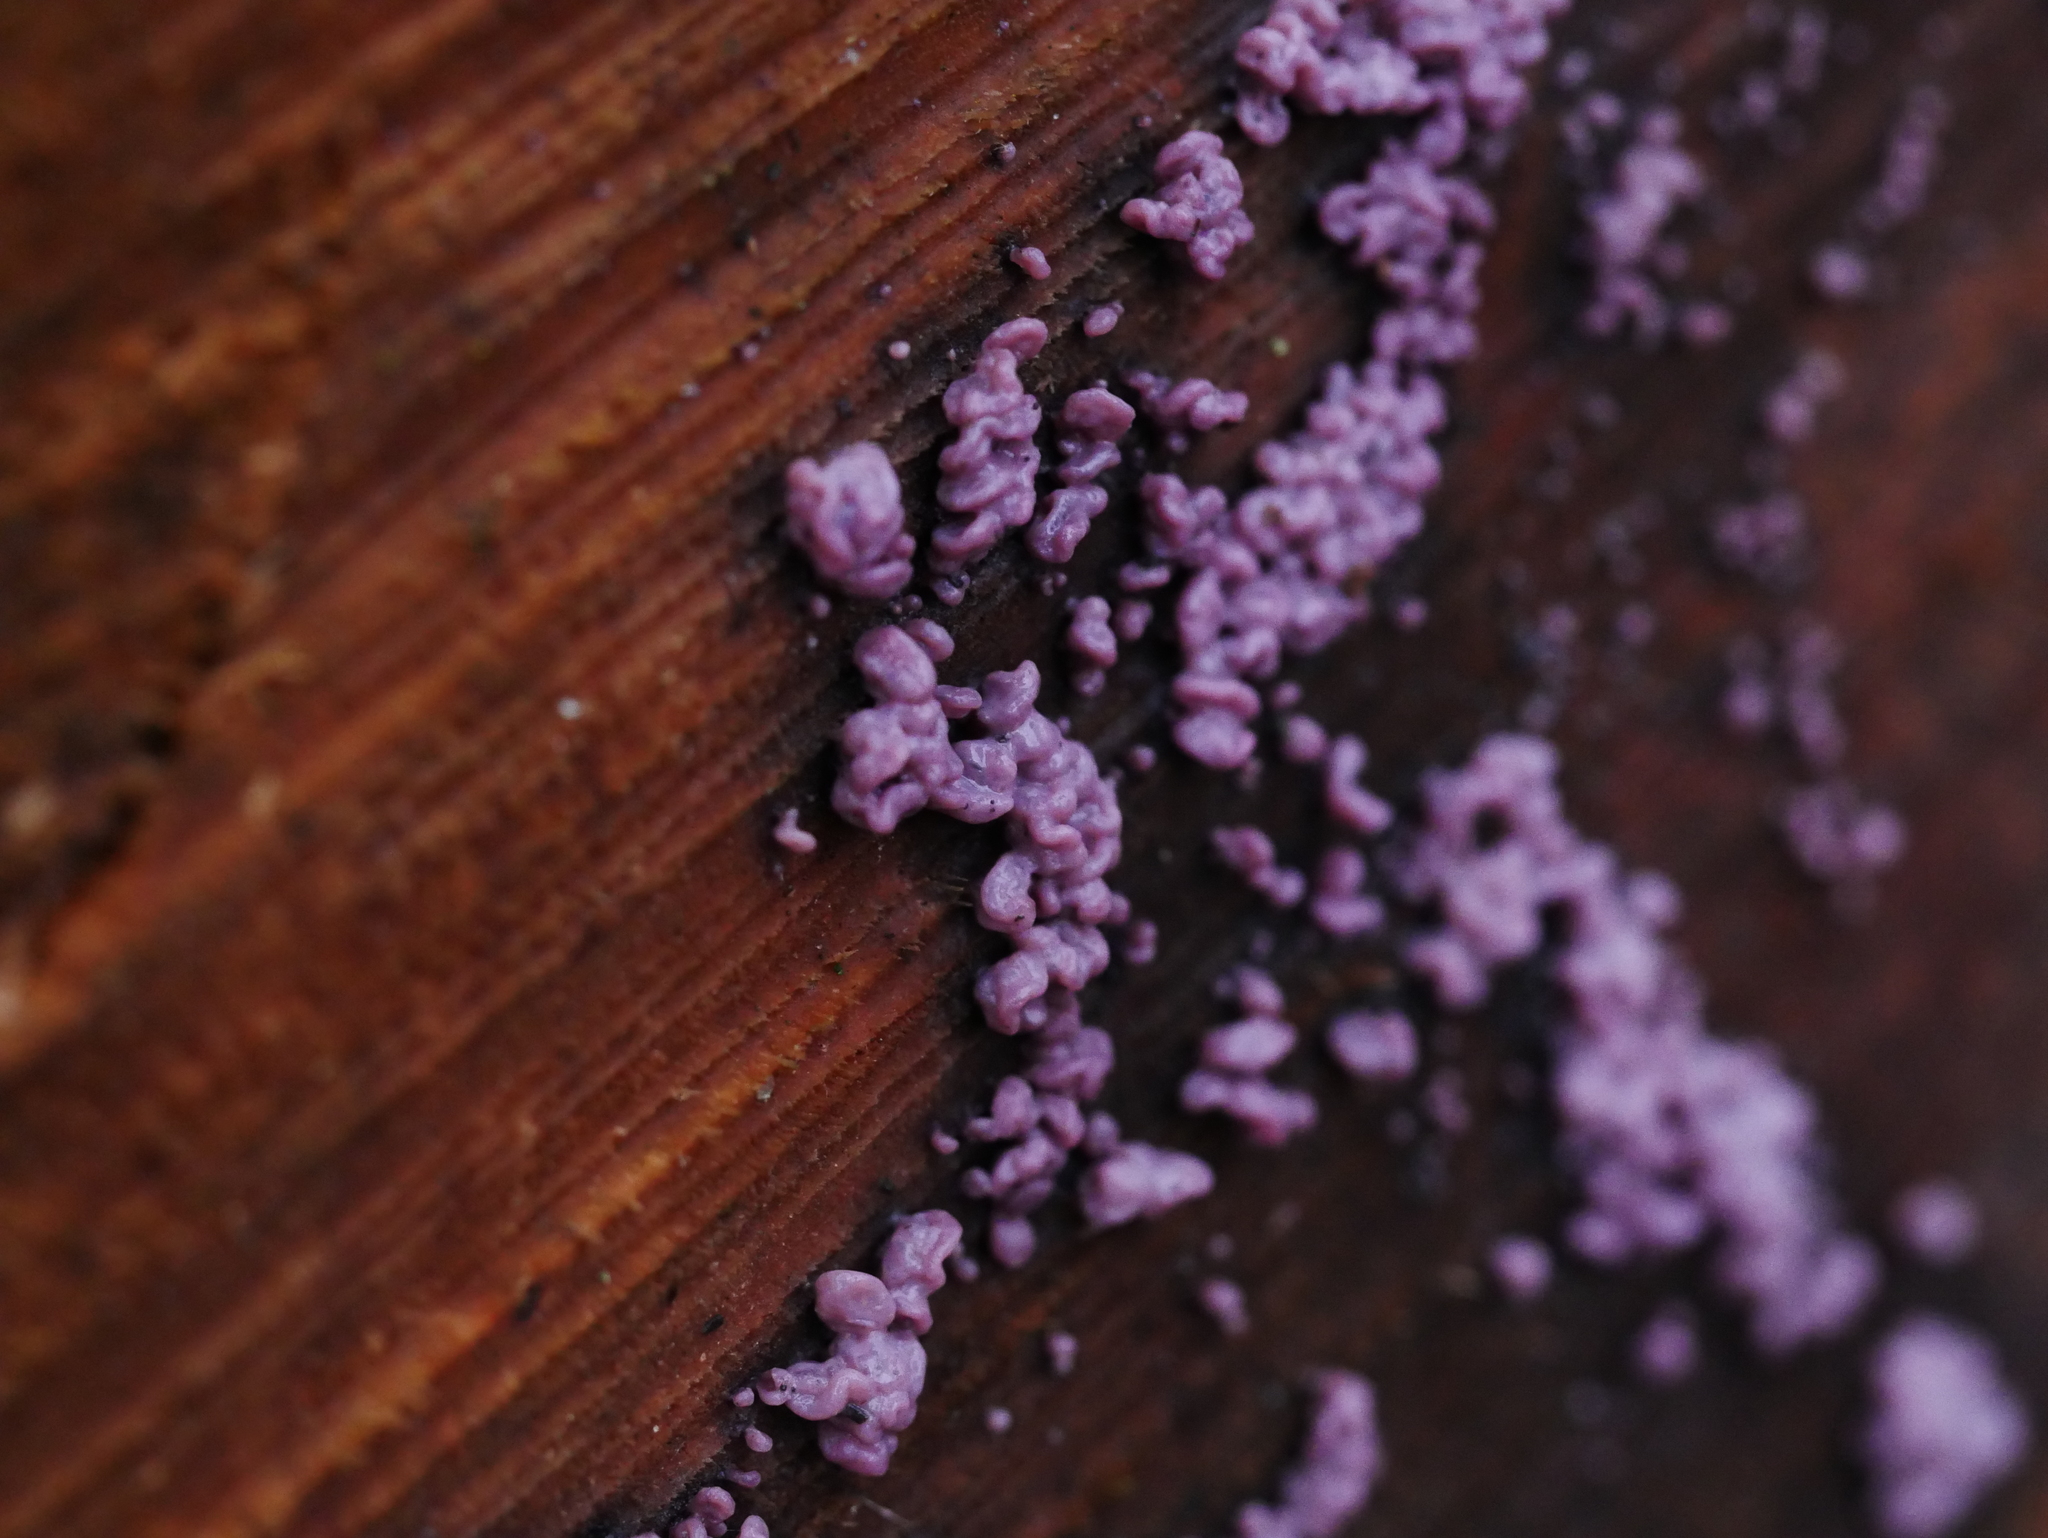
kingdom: Fungi
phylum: Ascomycota
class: Leotiomycetes
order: Helotiales
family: Gelatinodiscaceae
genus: Ascocoryne
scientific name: Ascocoryne sarcoides
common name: Purple jellydisc
